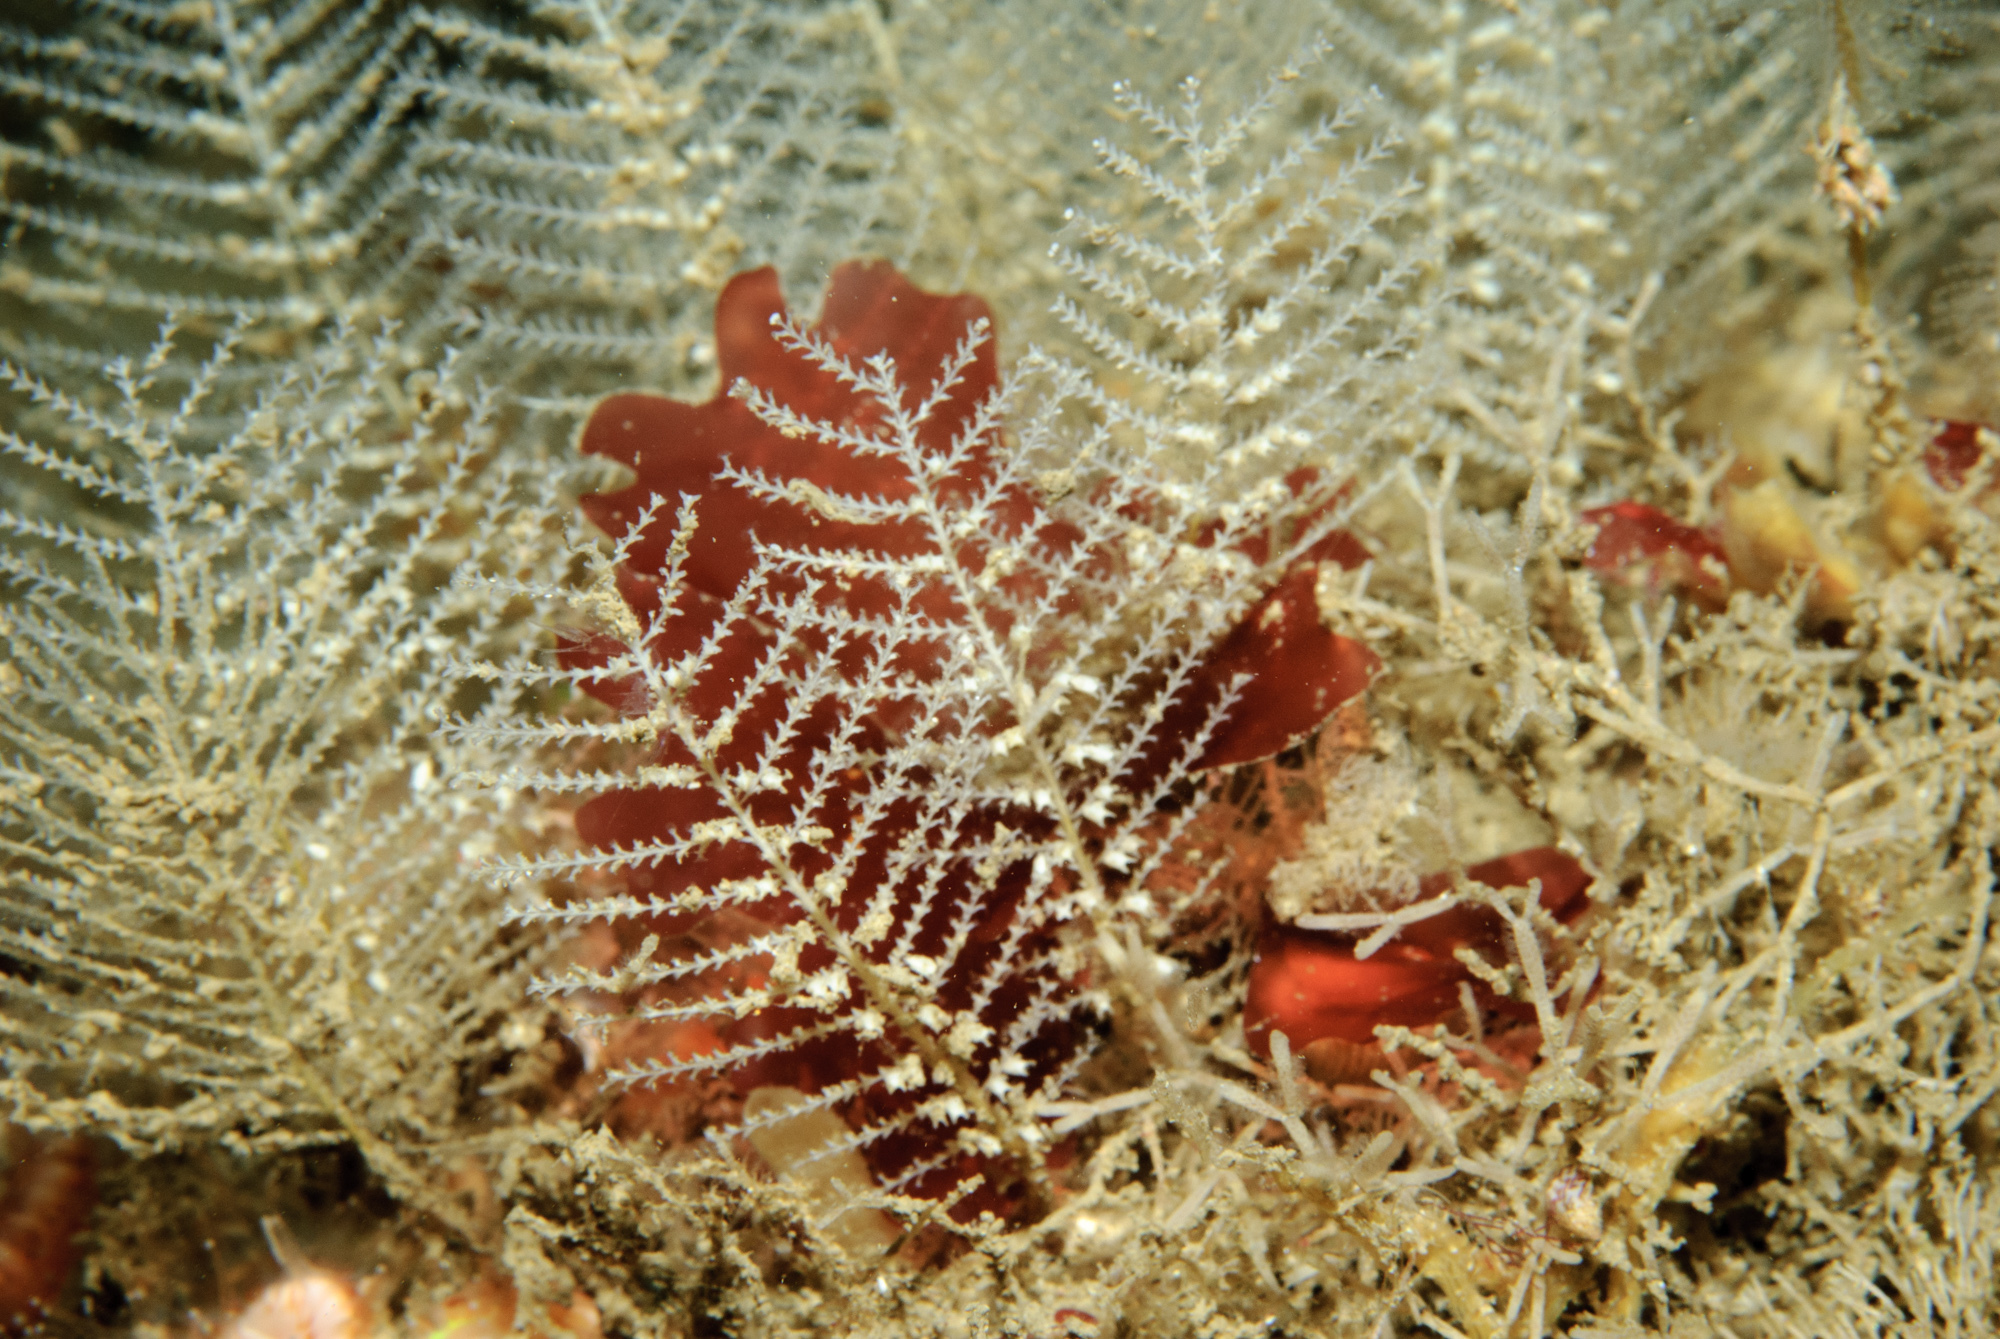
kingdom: Animalia
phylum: Cnidaria
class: Hydrozoa
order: Leptothecata
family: Sertulariidae
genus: Diphasia
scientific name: Diphasia margareta
